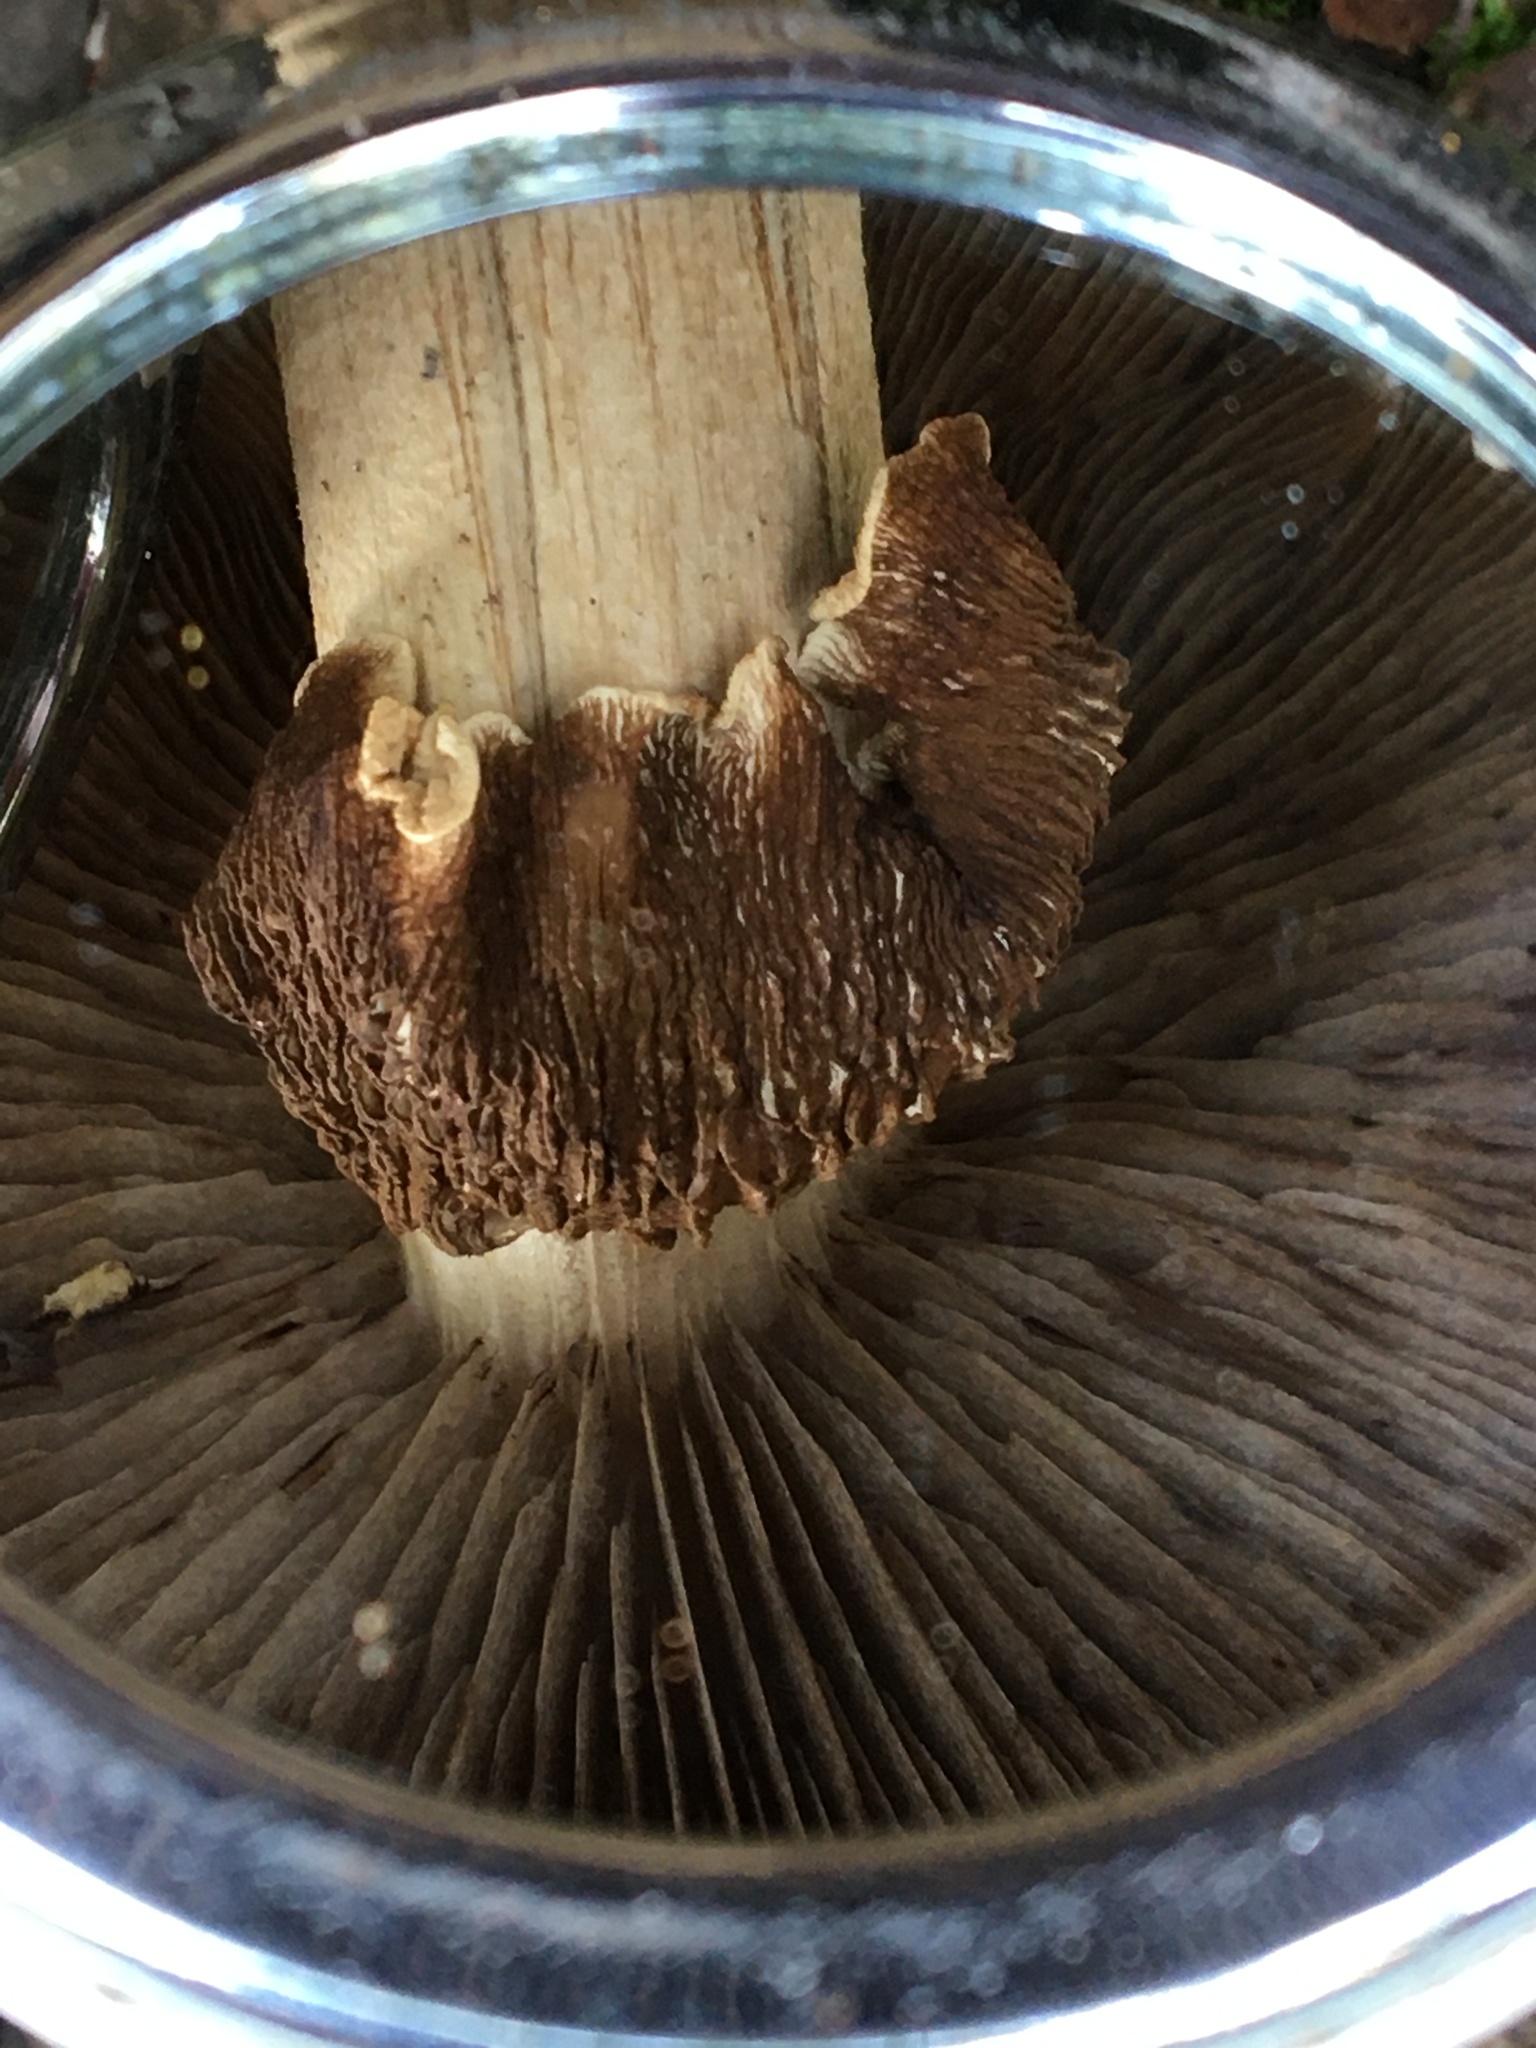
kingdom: Fungi
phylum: Basidiomycota
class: Agaricomycetes
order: Agaricales
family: Tubariaceae
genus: Cyclocybe
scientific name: Cyclocybe parasitica
